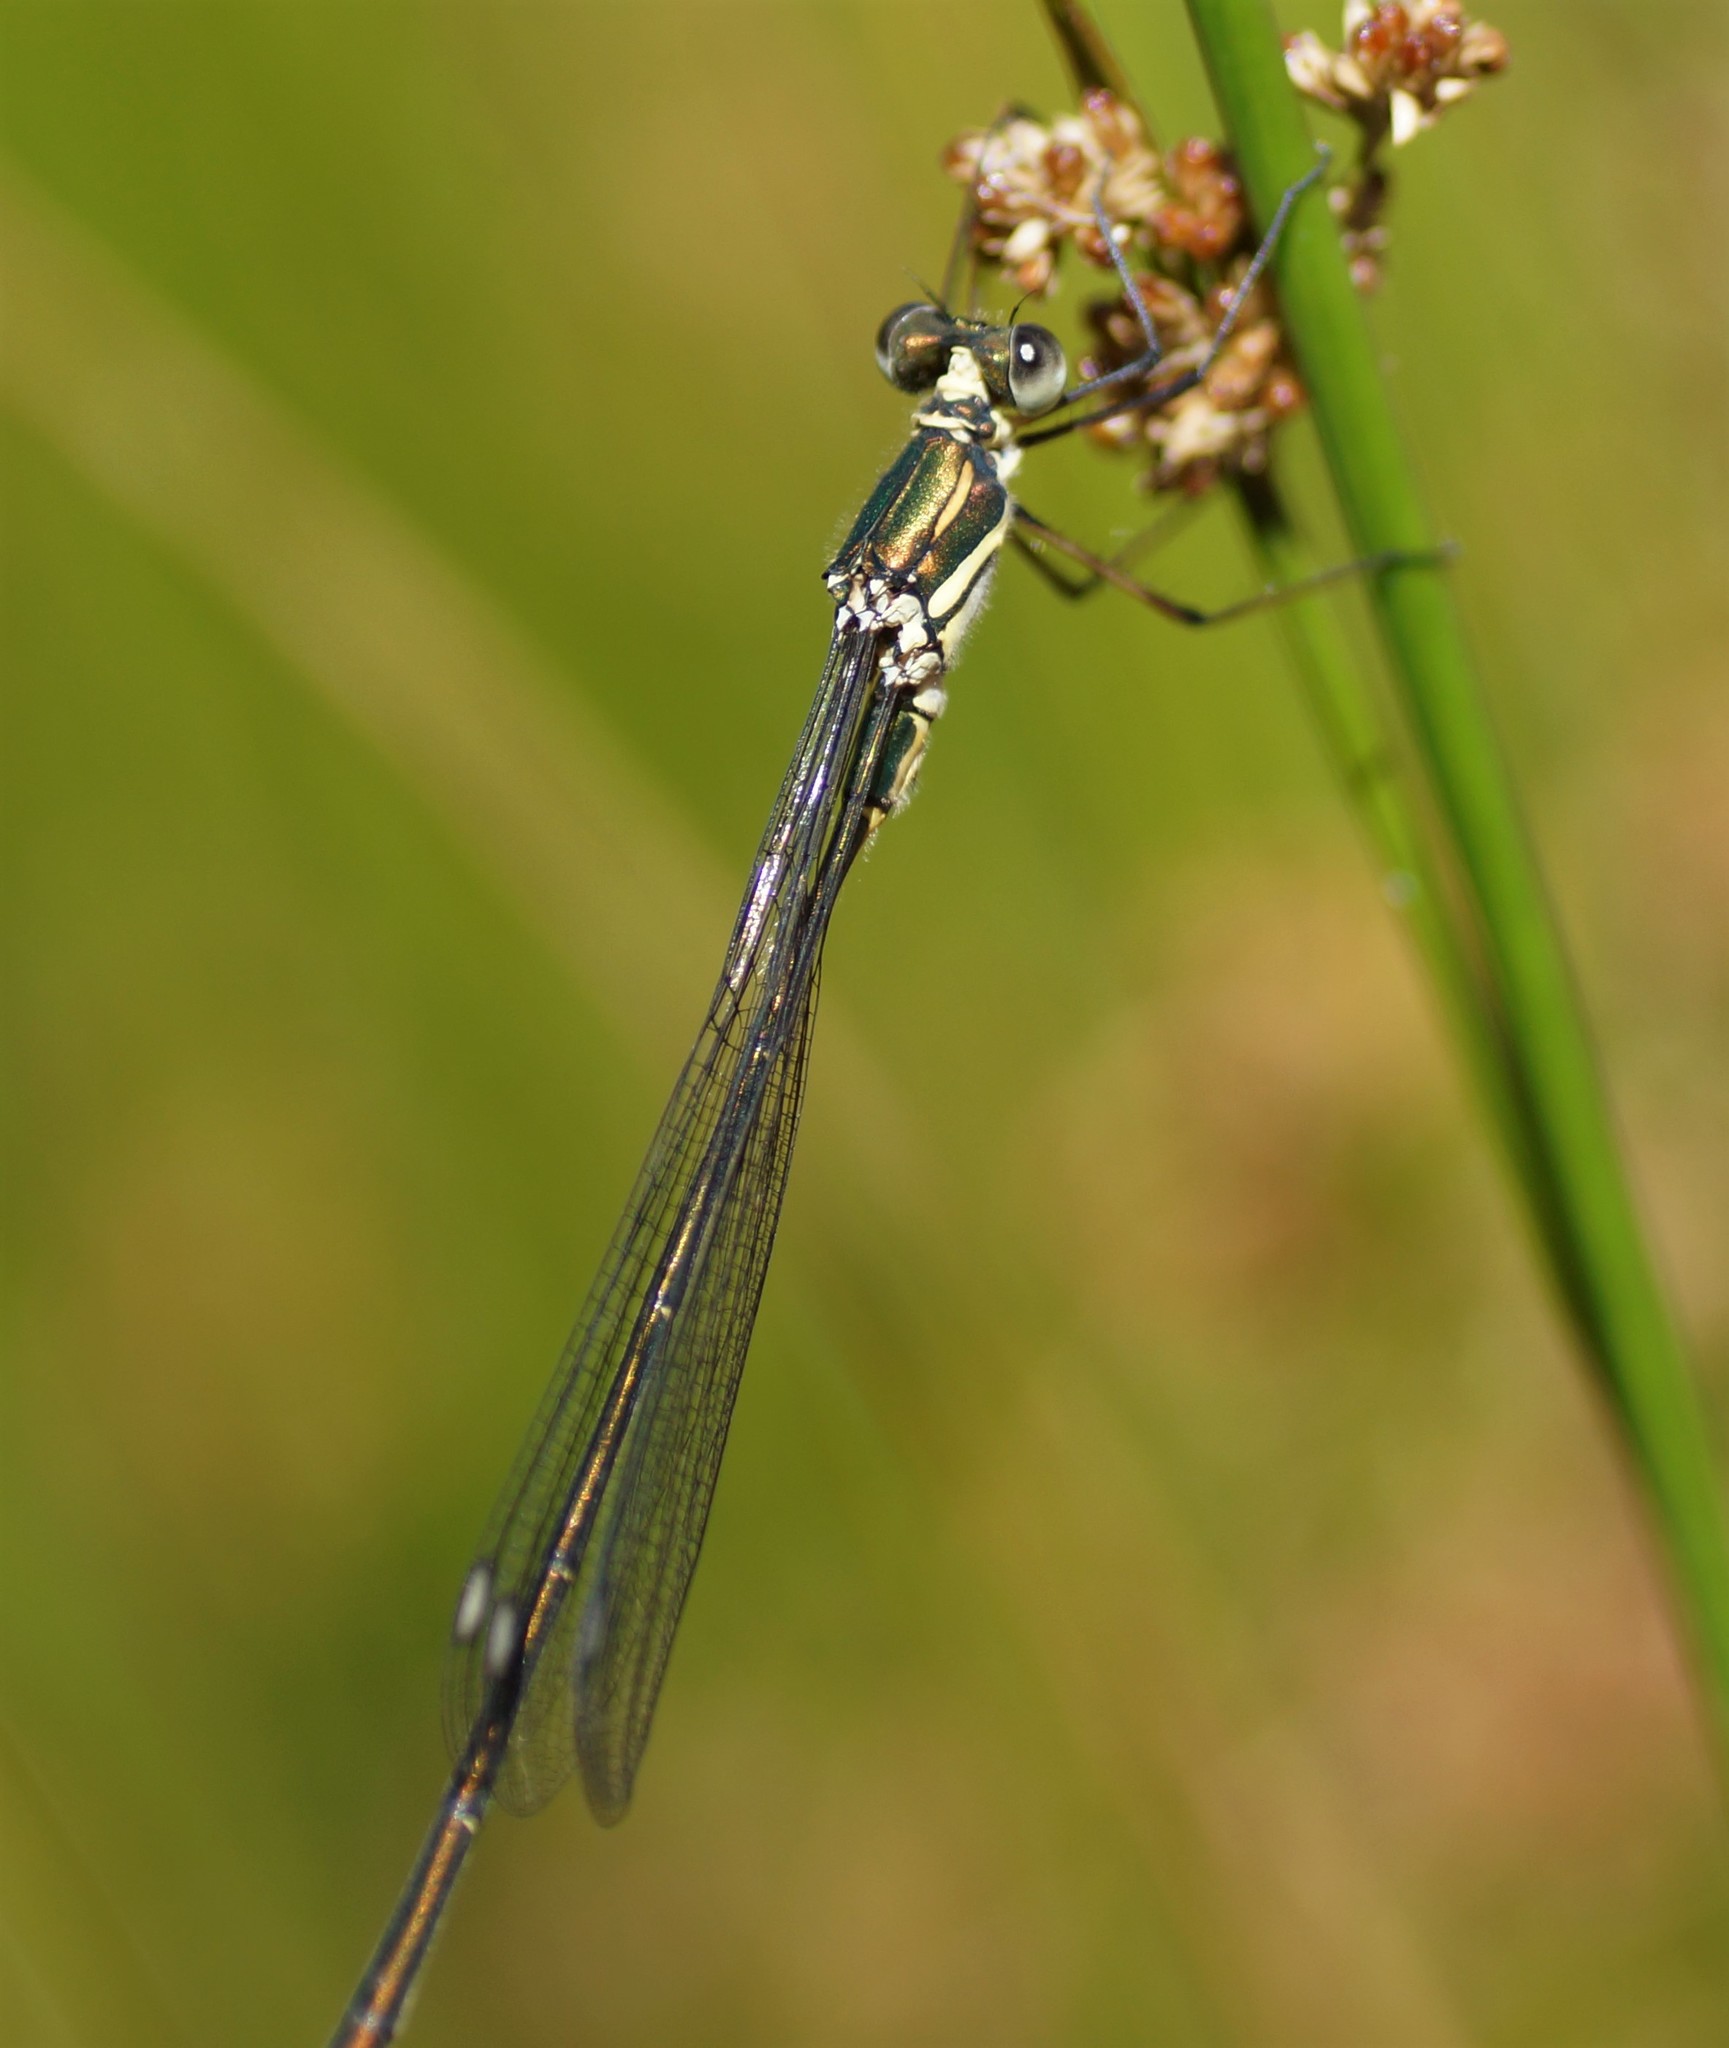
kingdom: Animalia
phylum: Arthropoda
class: Insecta
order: Odonata
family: Synlestidae
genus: Synlestes
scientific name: Synlestes weyersii
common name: Bronze needle
